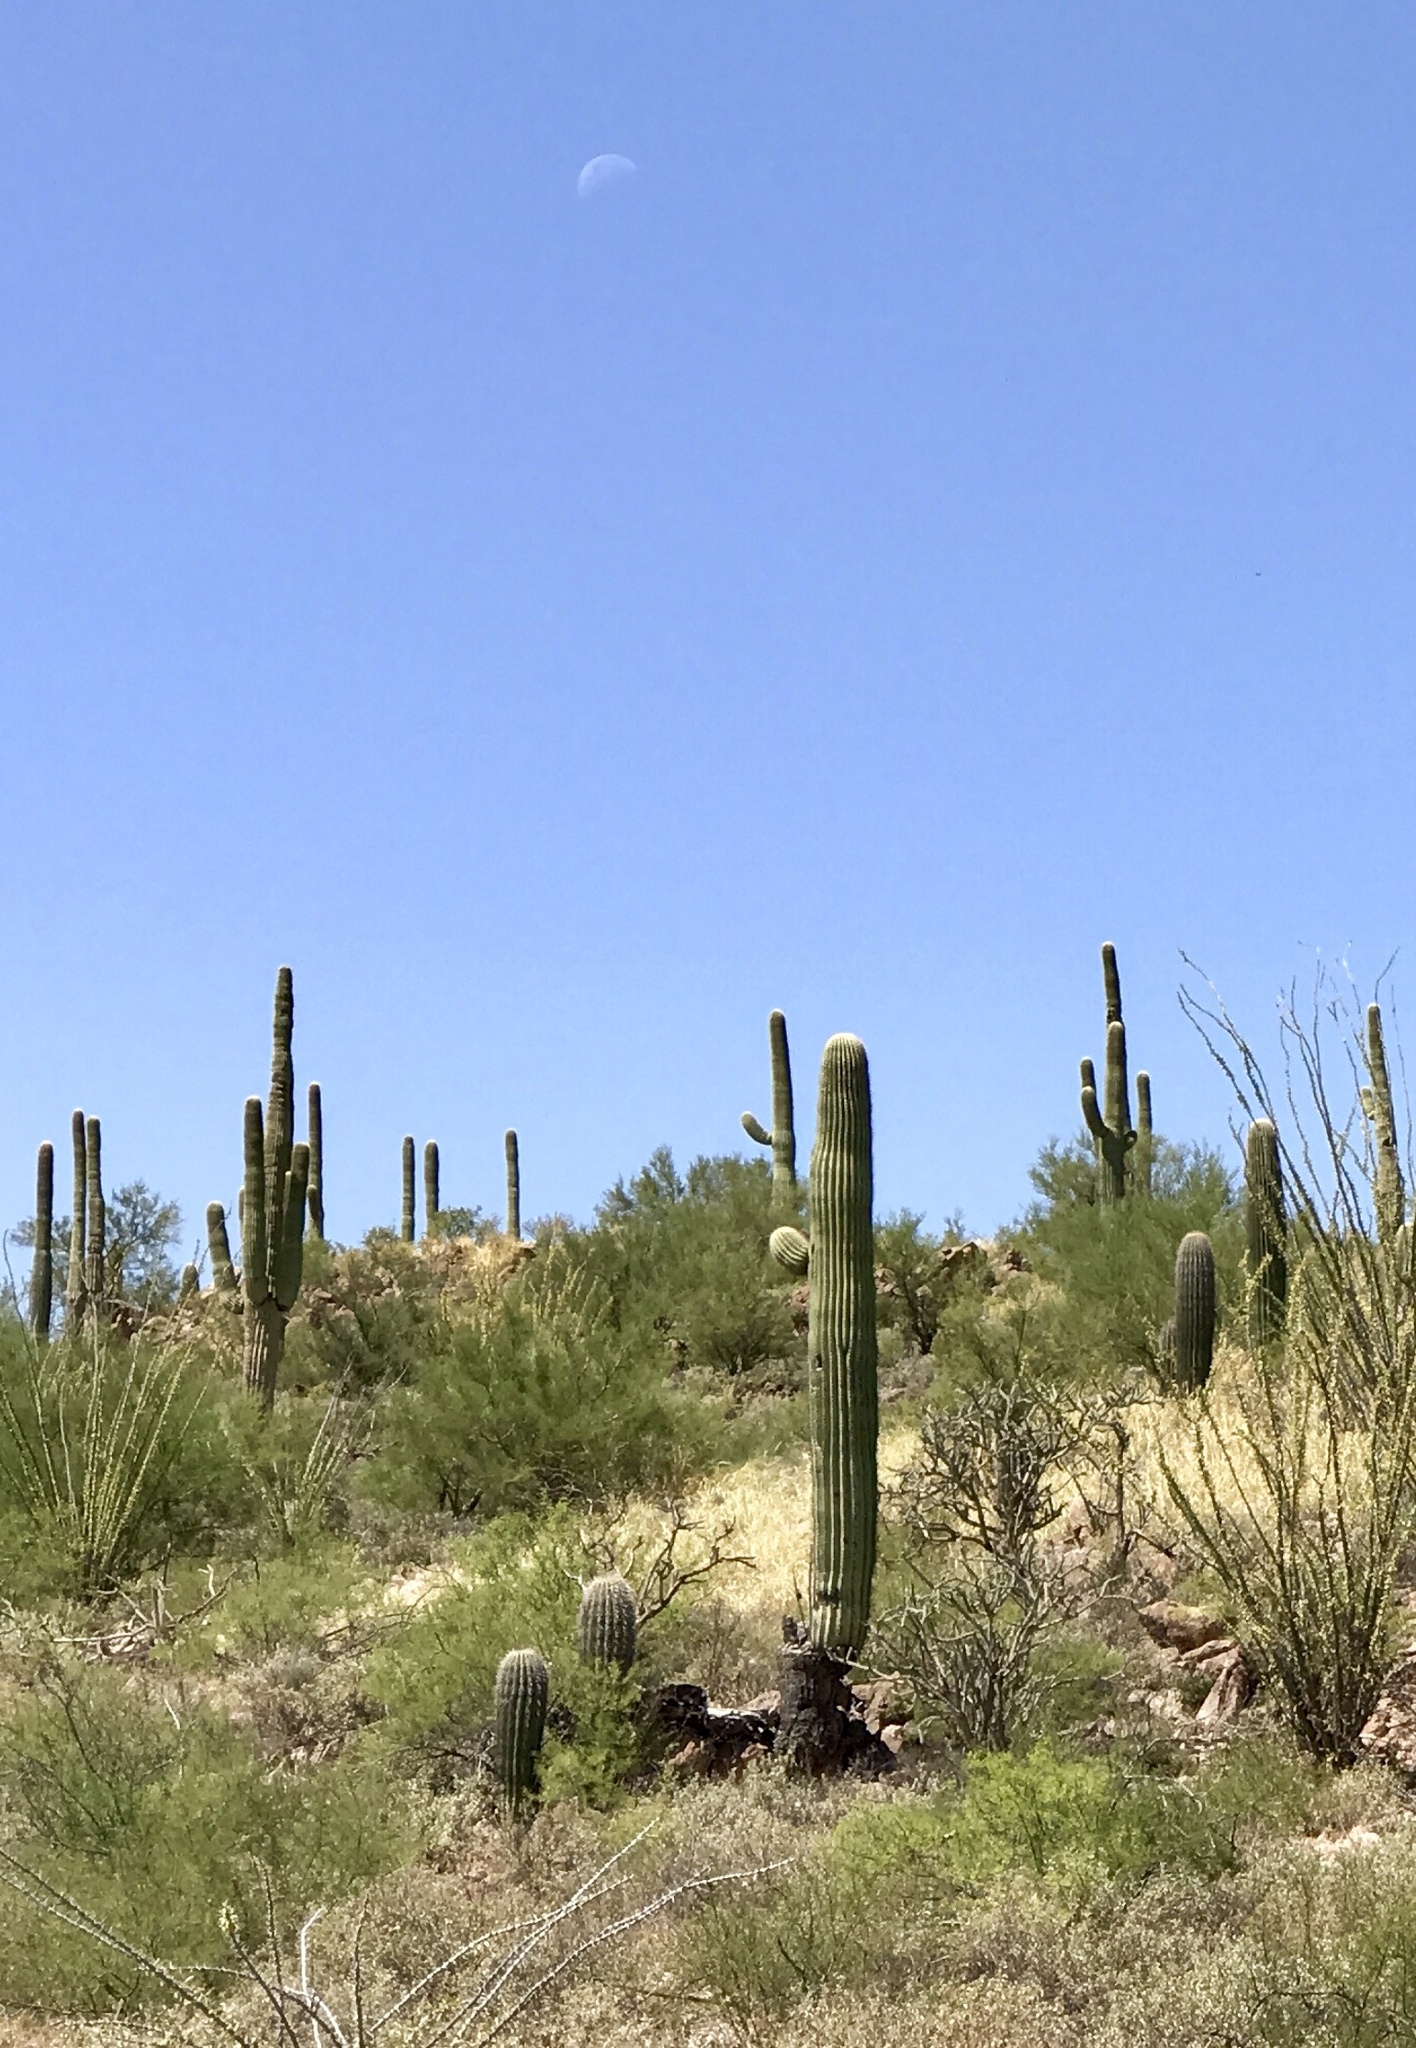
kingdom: Plantae
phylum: Tracheophyta
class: Magnoliopsida
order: Caryophyllales
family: Cactaceae
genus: Carnegiea
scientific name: Carnegiea gigantea
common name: Saguaro
